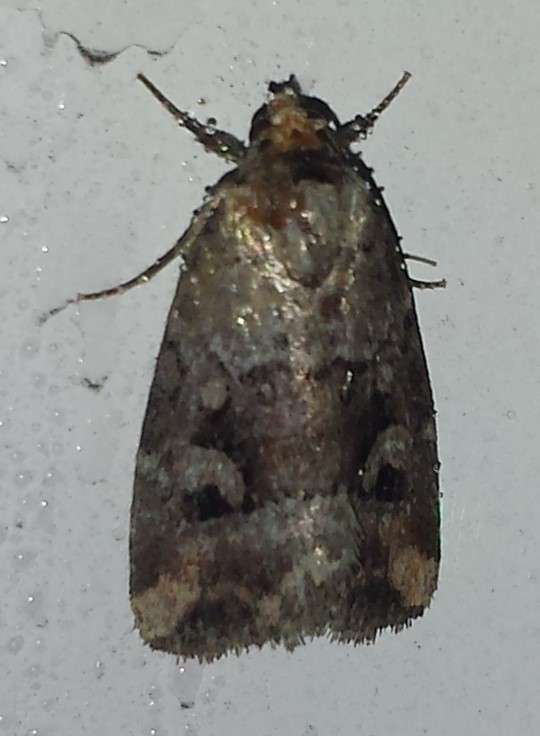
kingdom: Animalia
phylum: Arthropoda
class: Insecta
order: Lepidoptera
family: Noctuidae
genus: Elaphria
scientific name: Elaphria alapallida
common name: Pale-winged midget
